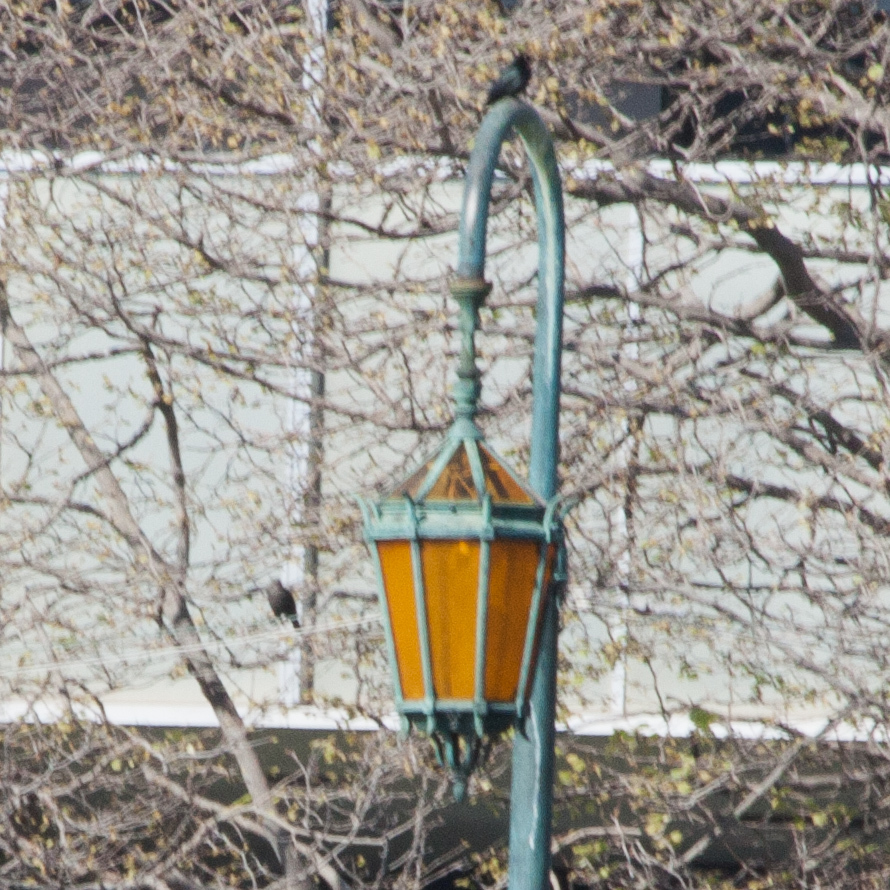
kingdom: Animalia
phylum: Chordata
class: Aves
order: Passeriformes
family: Icteridae
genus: Euphagus
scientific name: Euphagus cyanocephalus
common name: Brewer's blackbird
